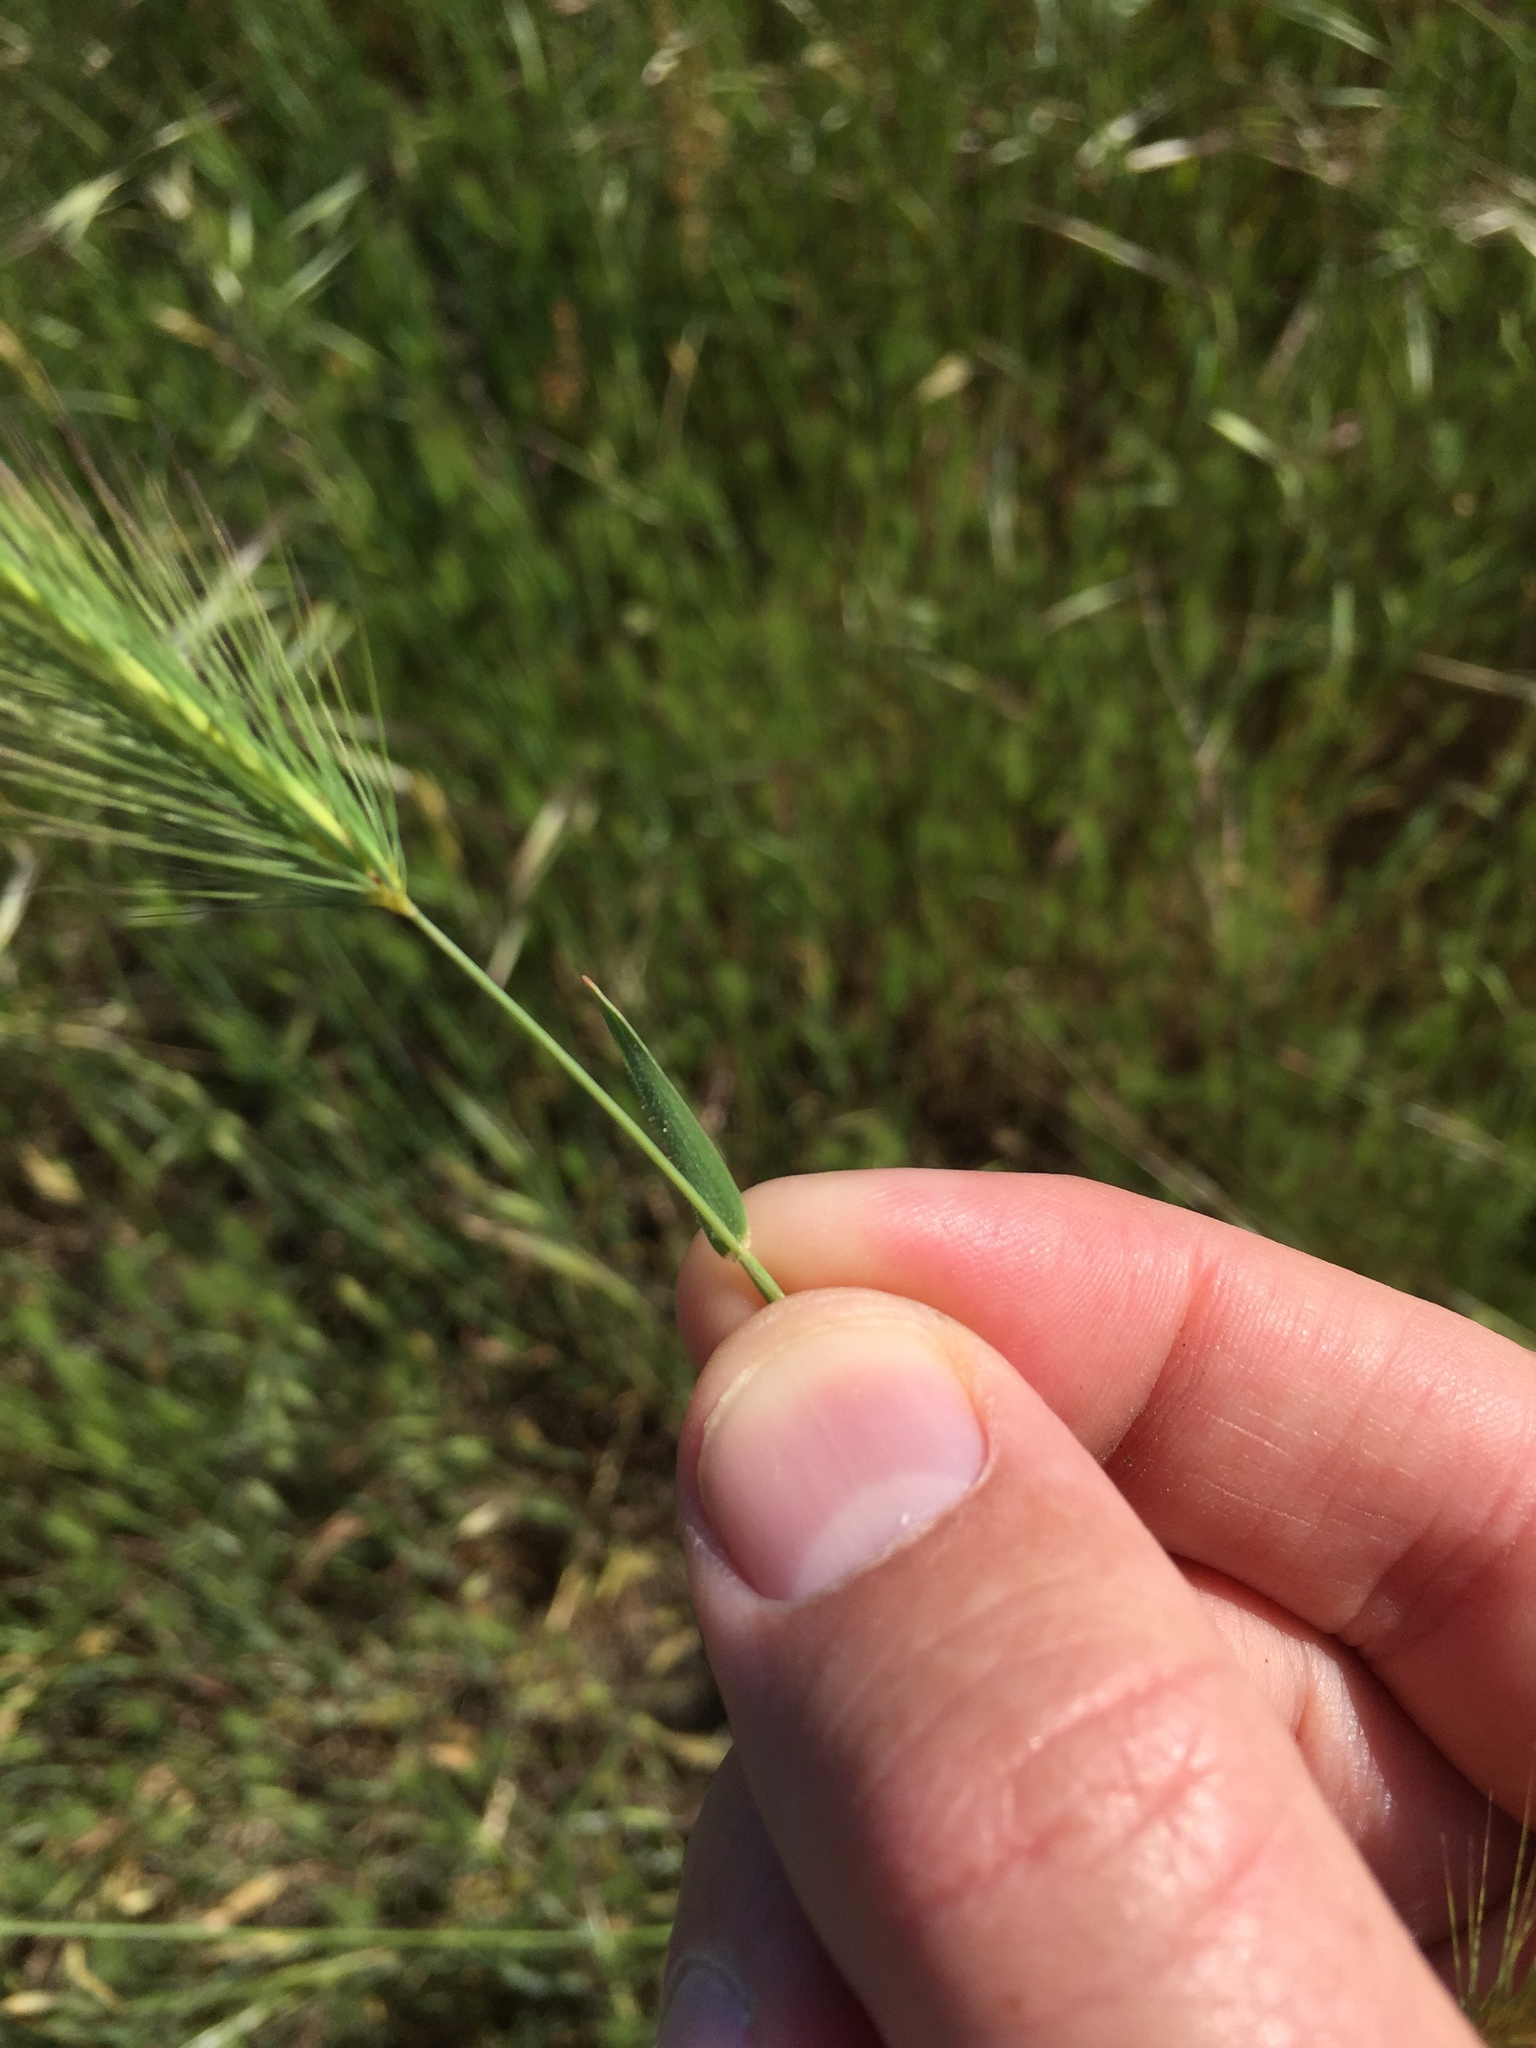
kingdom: Plantae
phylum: Tracheophyta
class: Liliopsida
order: Poales
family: Poaceae
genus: Hordeum
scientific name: Hordeum marinum
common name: Sea barley
